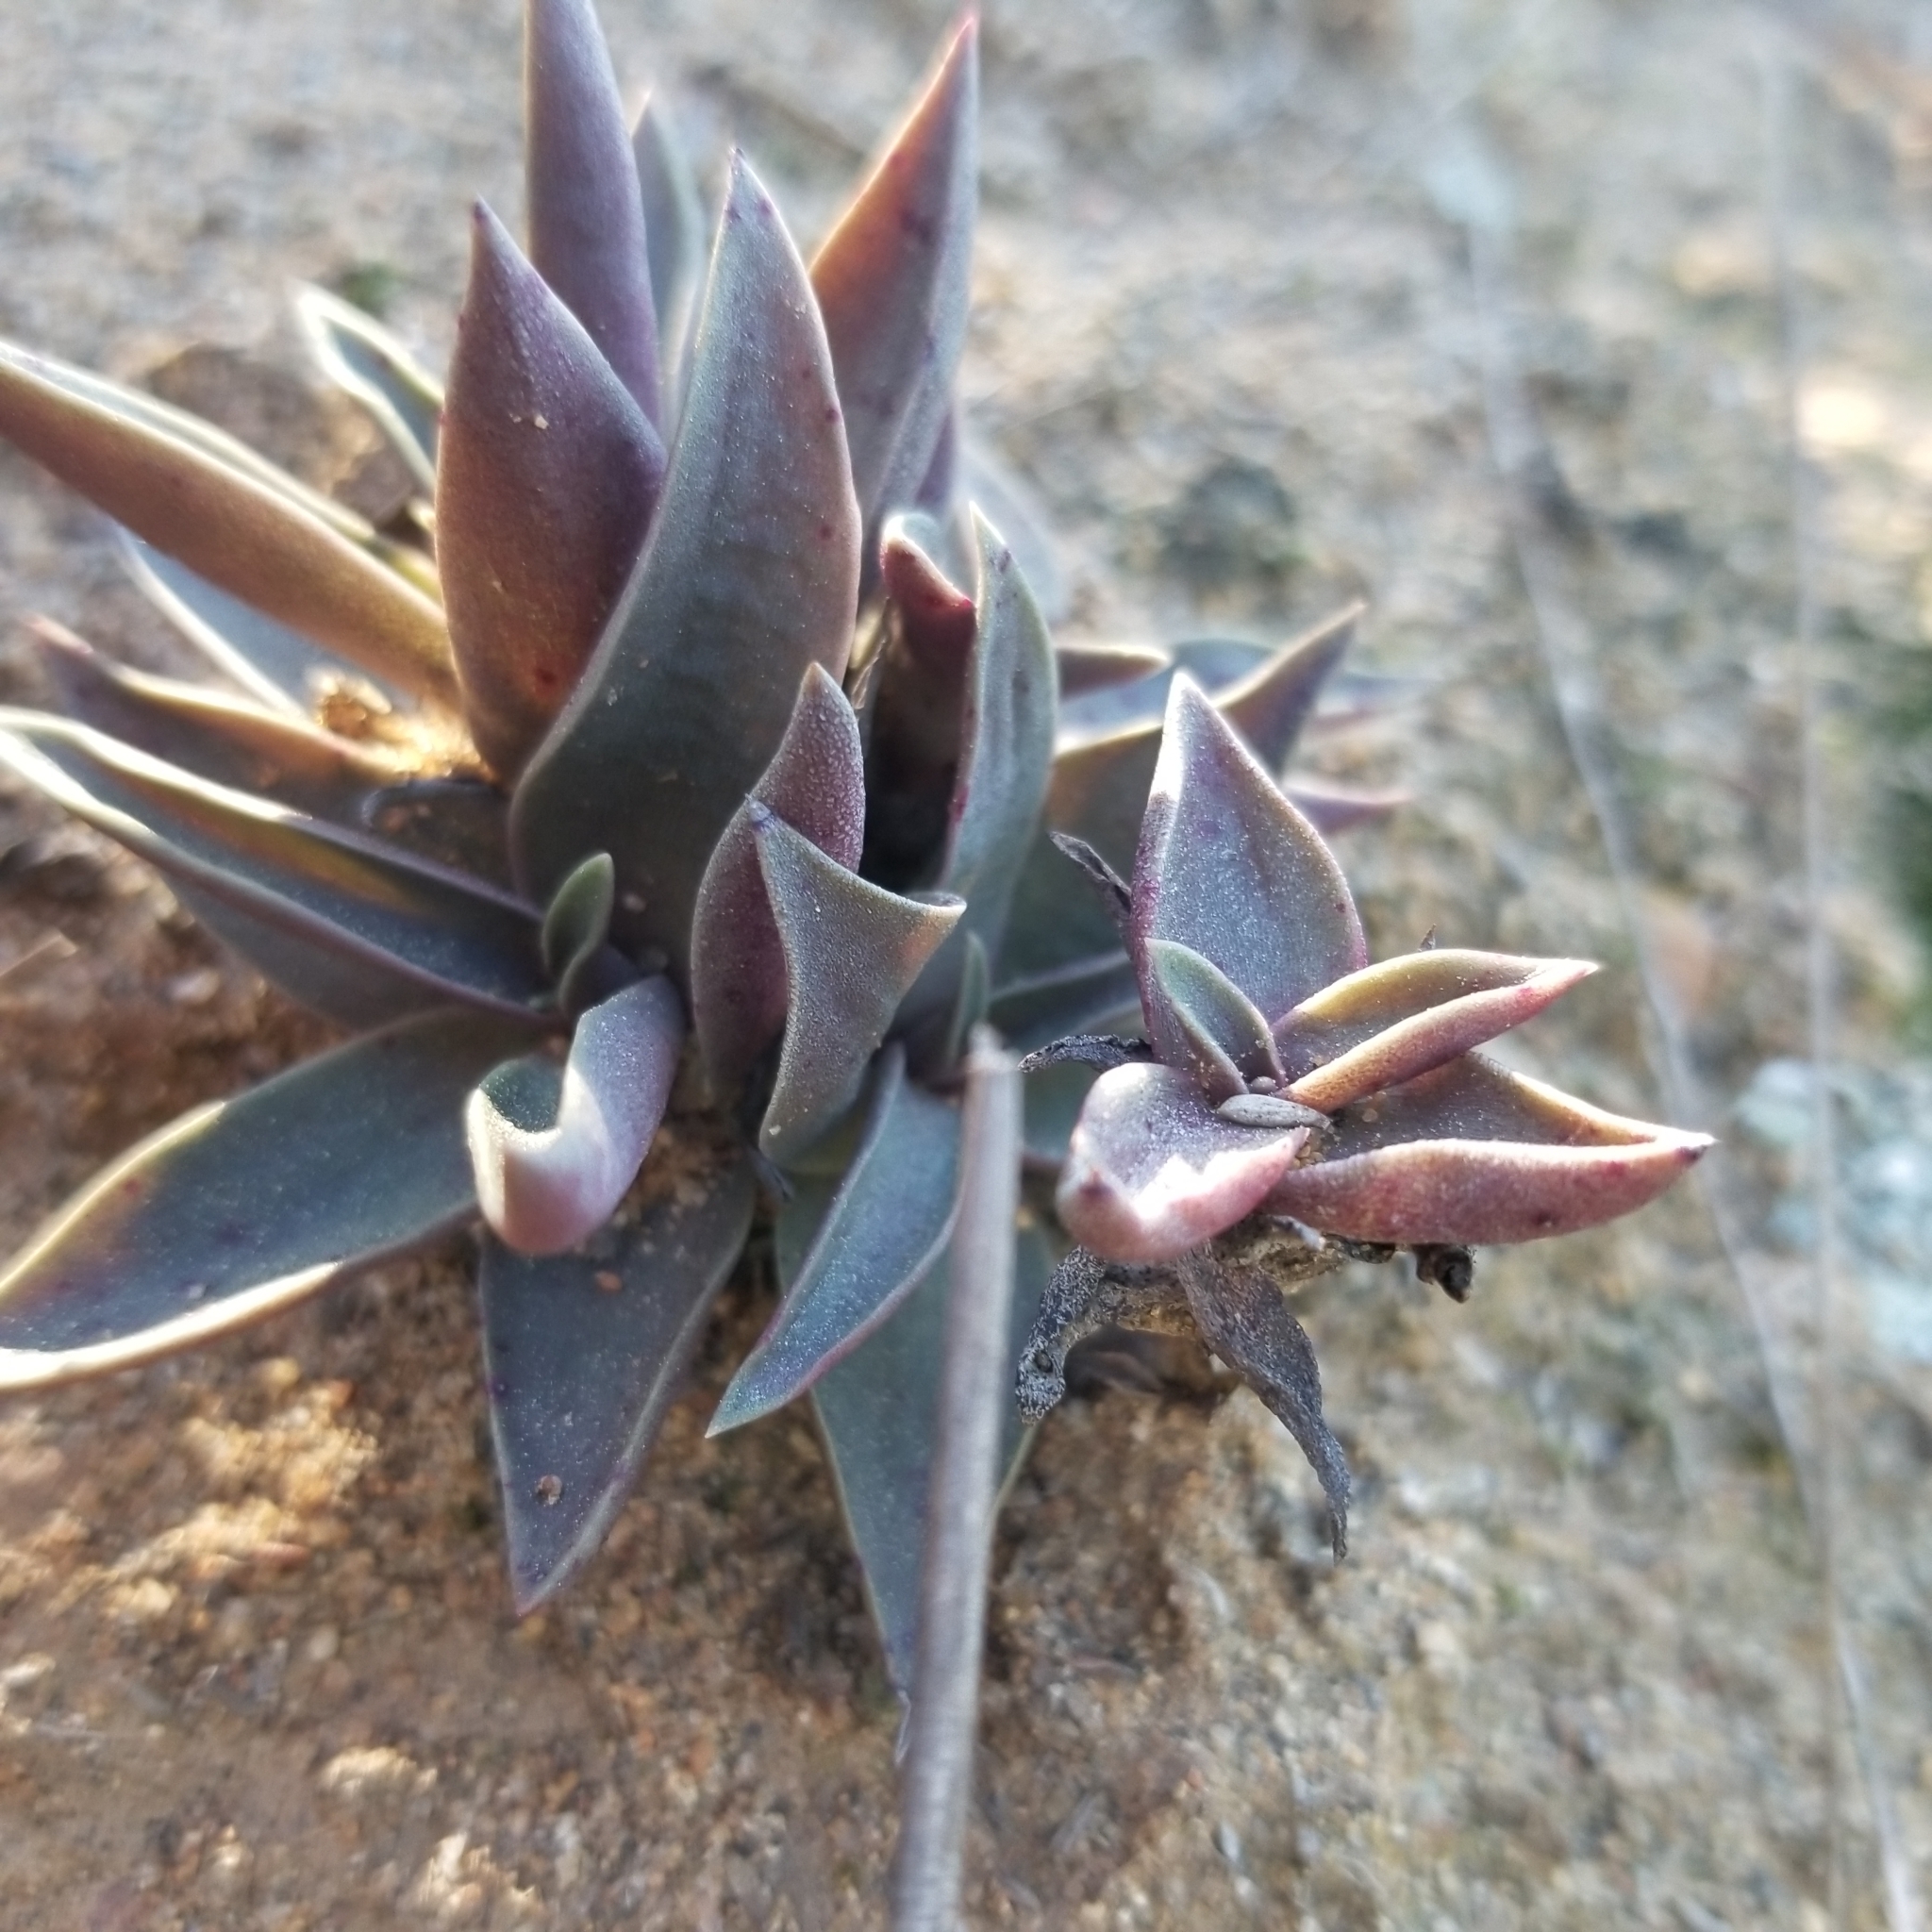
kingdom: Plantae
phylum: Tracheophyta
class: Magnoliopsida
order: Saxifragales
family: Crassulaceae
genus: Dudleya
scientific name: Dudleya lanceolata
